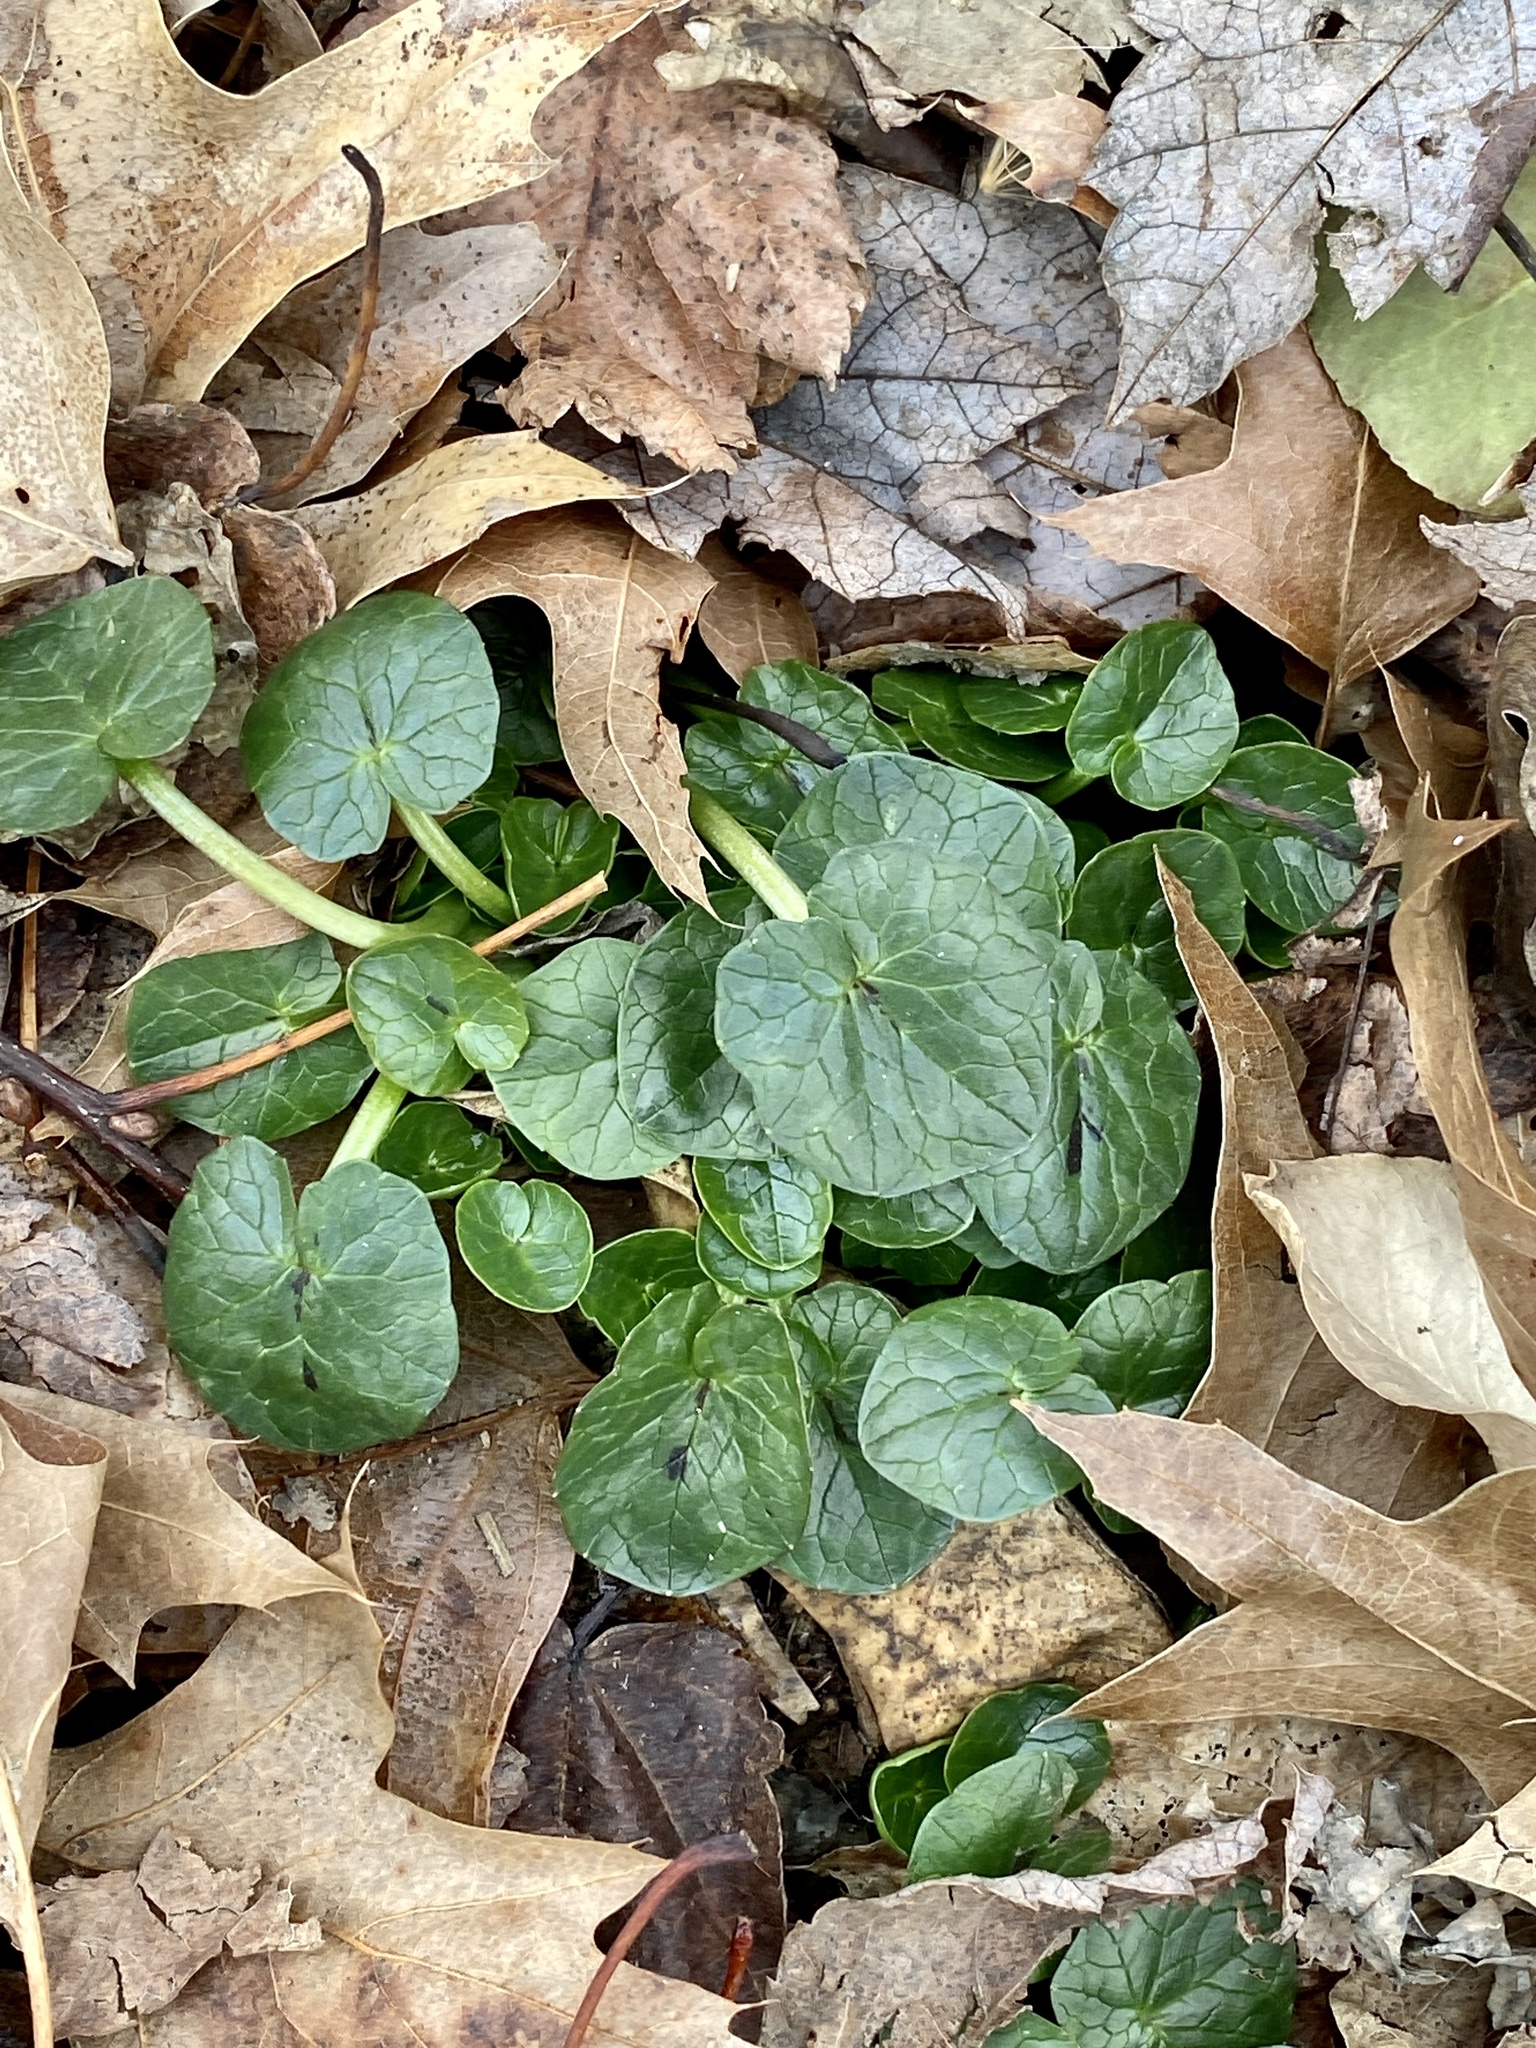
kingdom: Plantae
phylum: Tracheophyta
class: Magnoliopsida
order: Ranunculales
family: Ranunculaceae
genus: Ficaria
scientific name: Ficaria verna
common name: Lesser celandine
